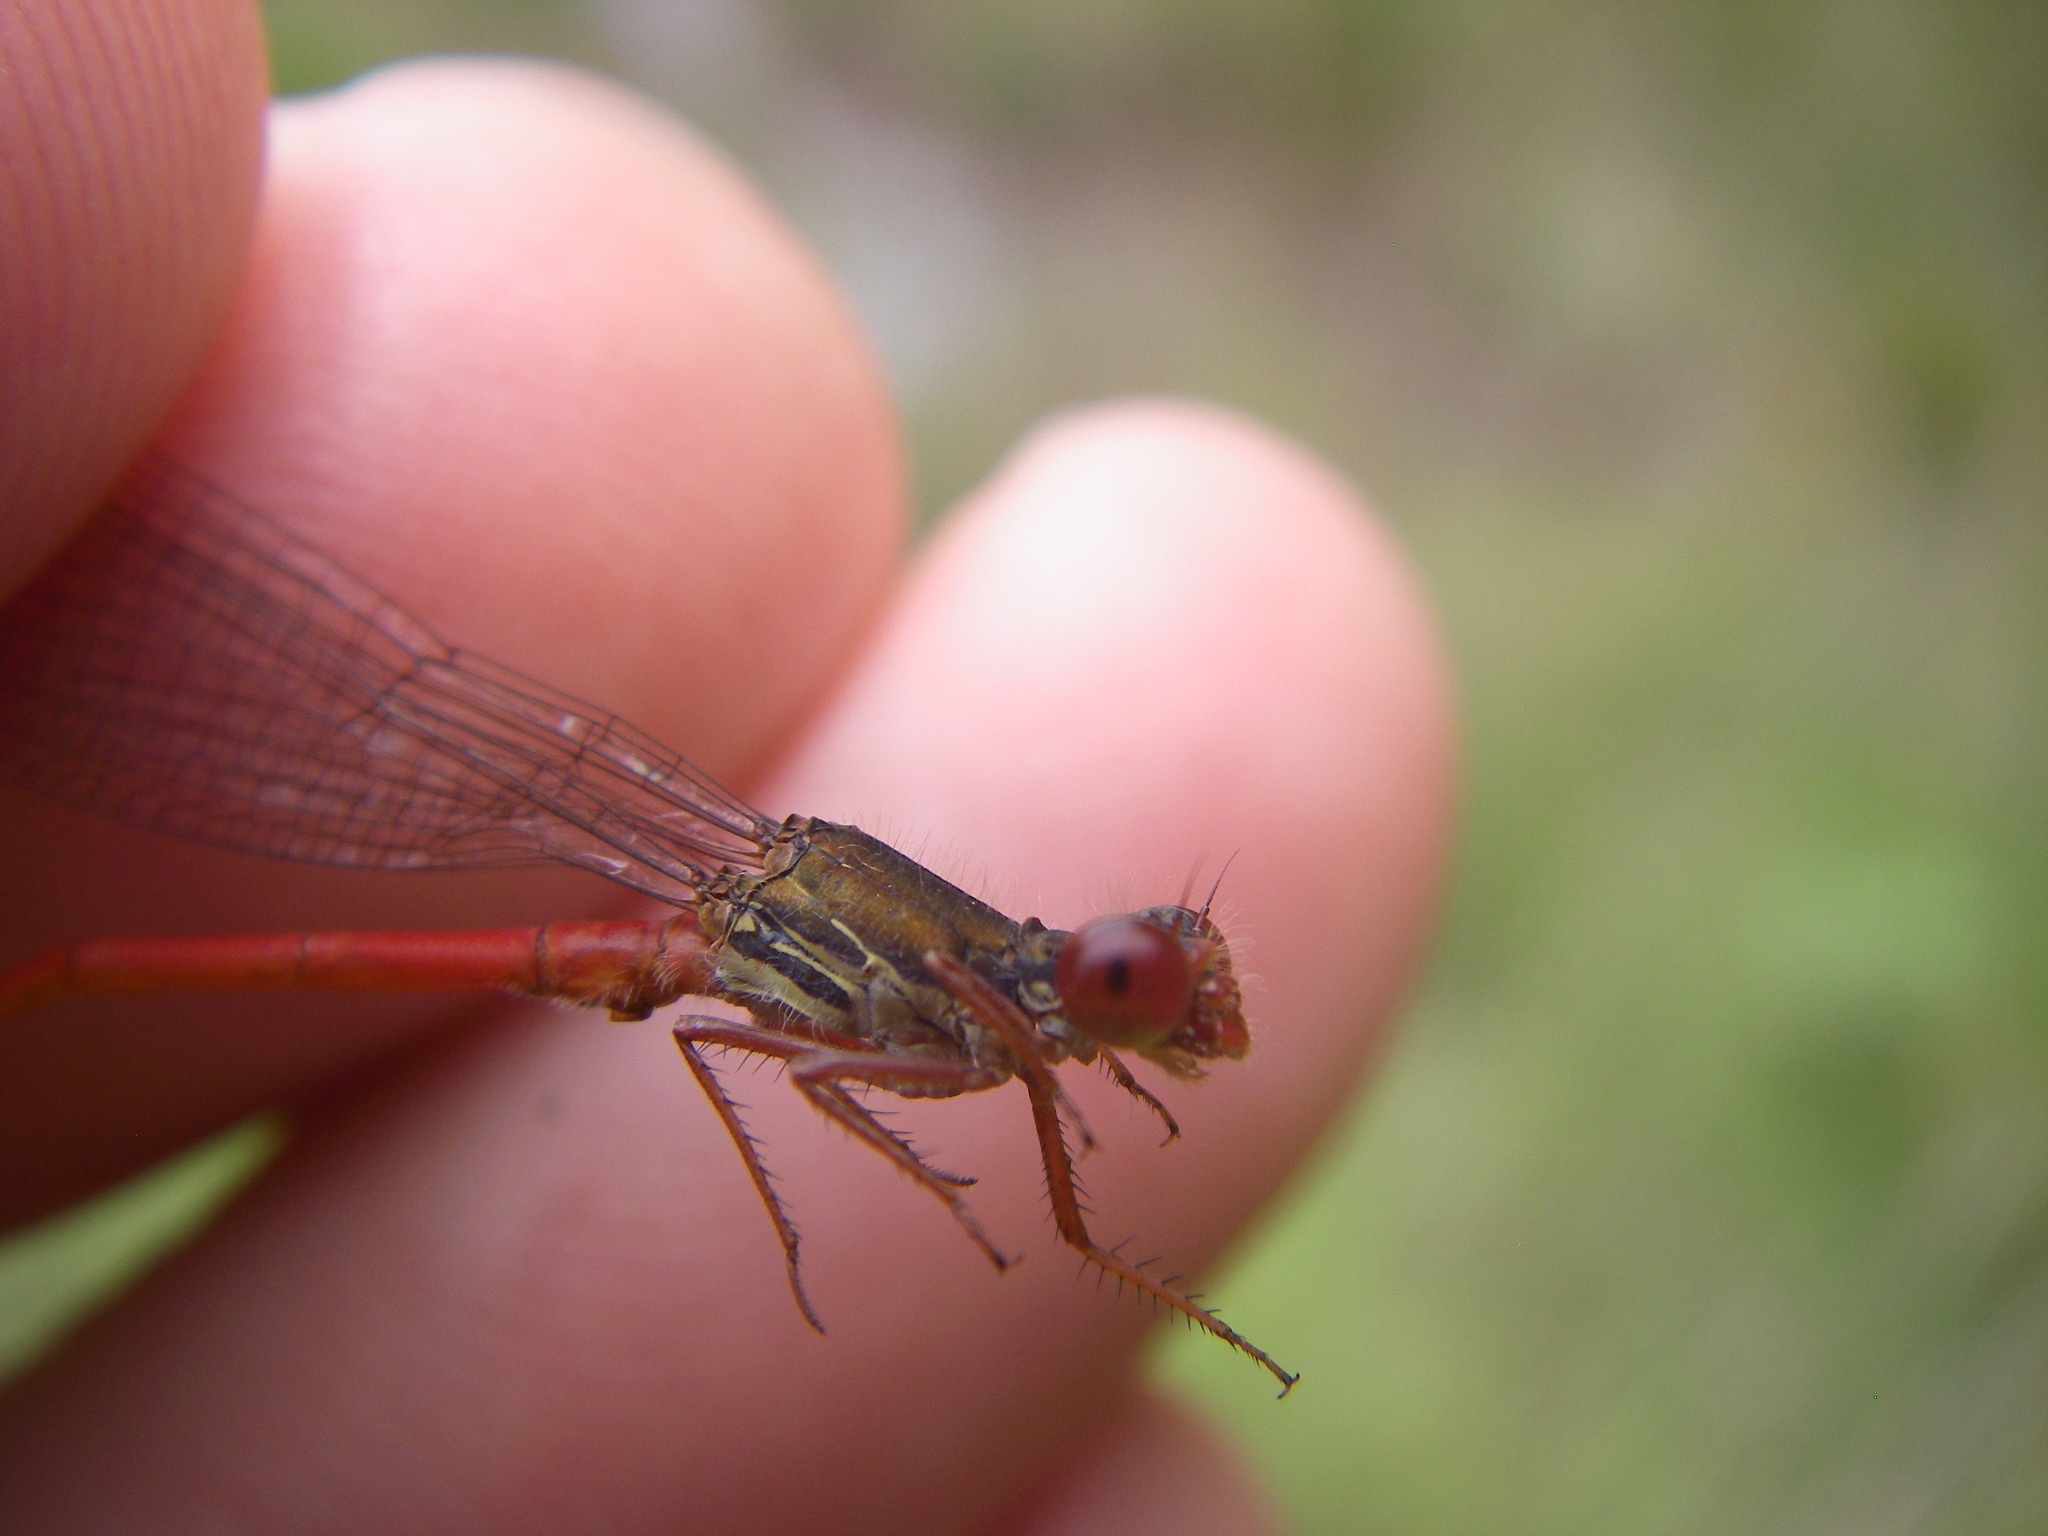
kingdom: Animalia
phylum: Arthropoda
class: Insecta
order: Odonata
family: Coenagrionidae
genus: Ceriagrion
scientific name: Ceriagrion tenellum
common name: Small red damselfly
